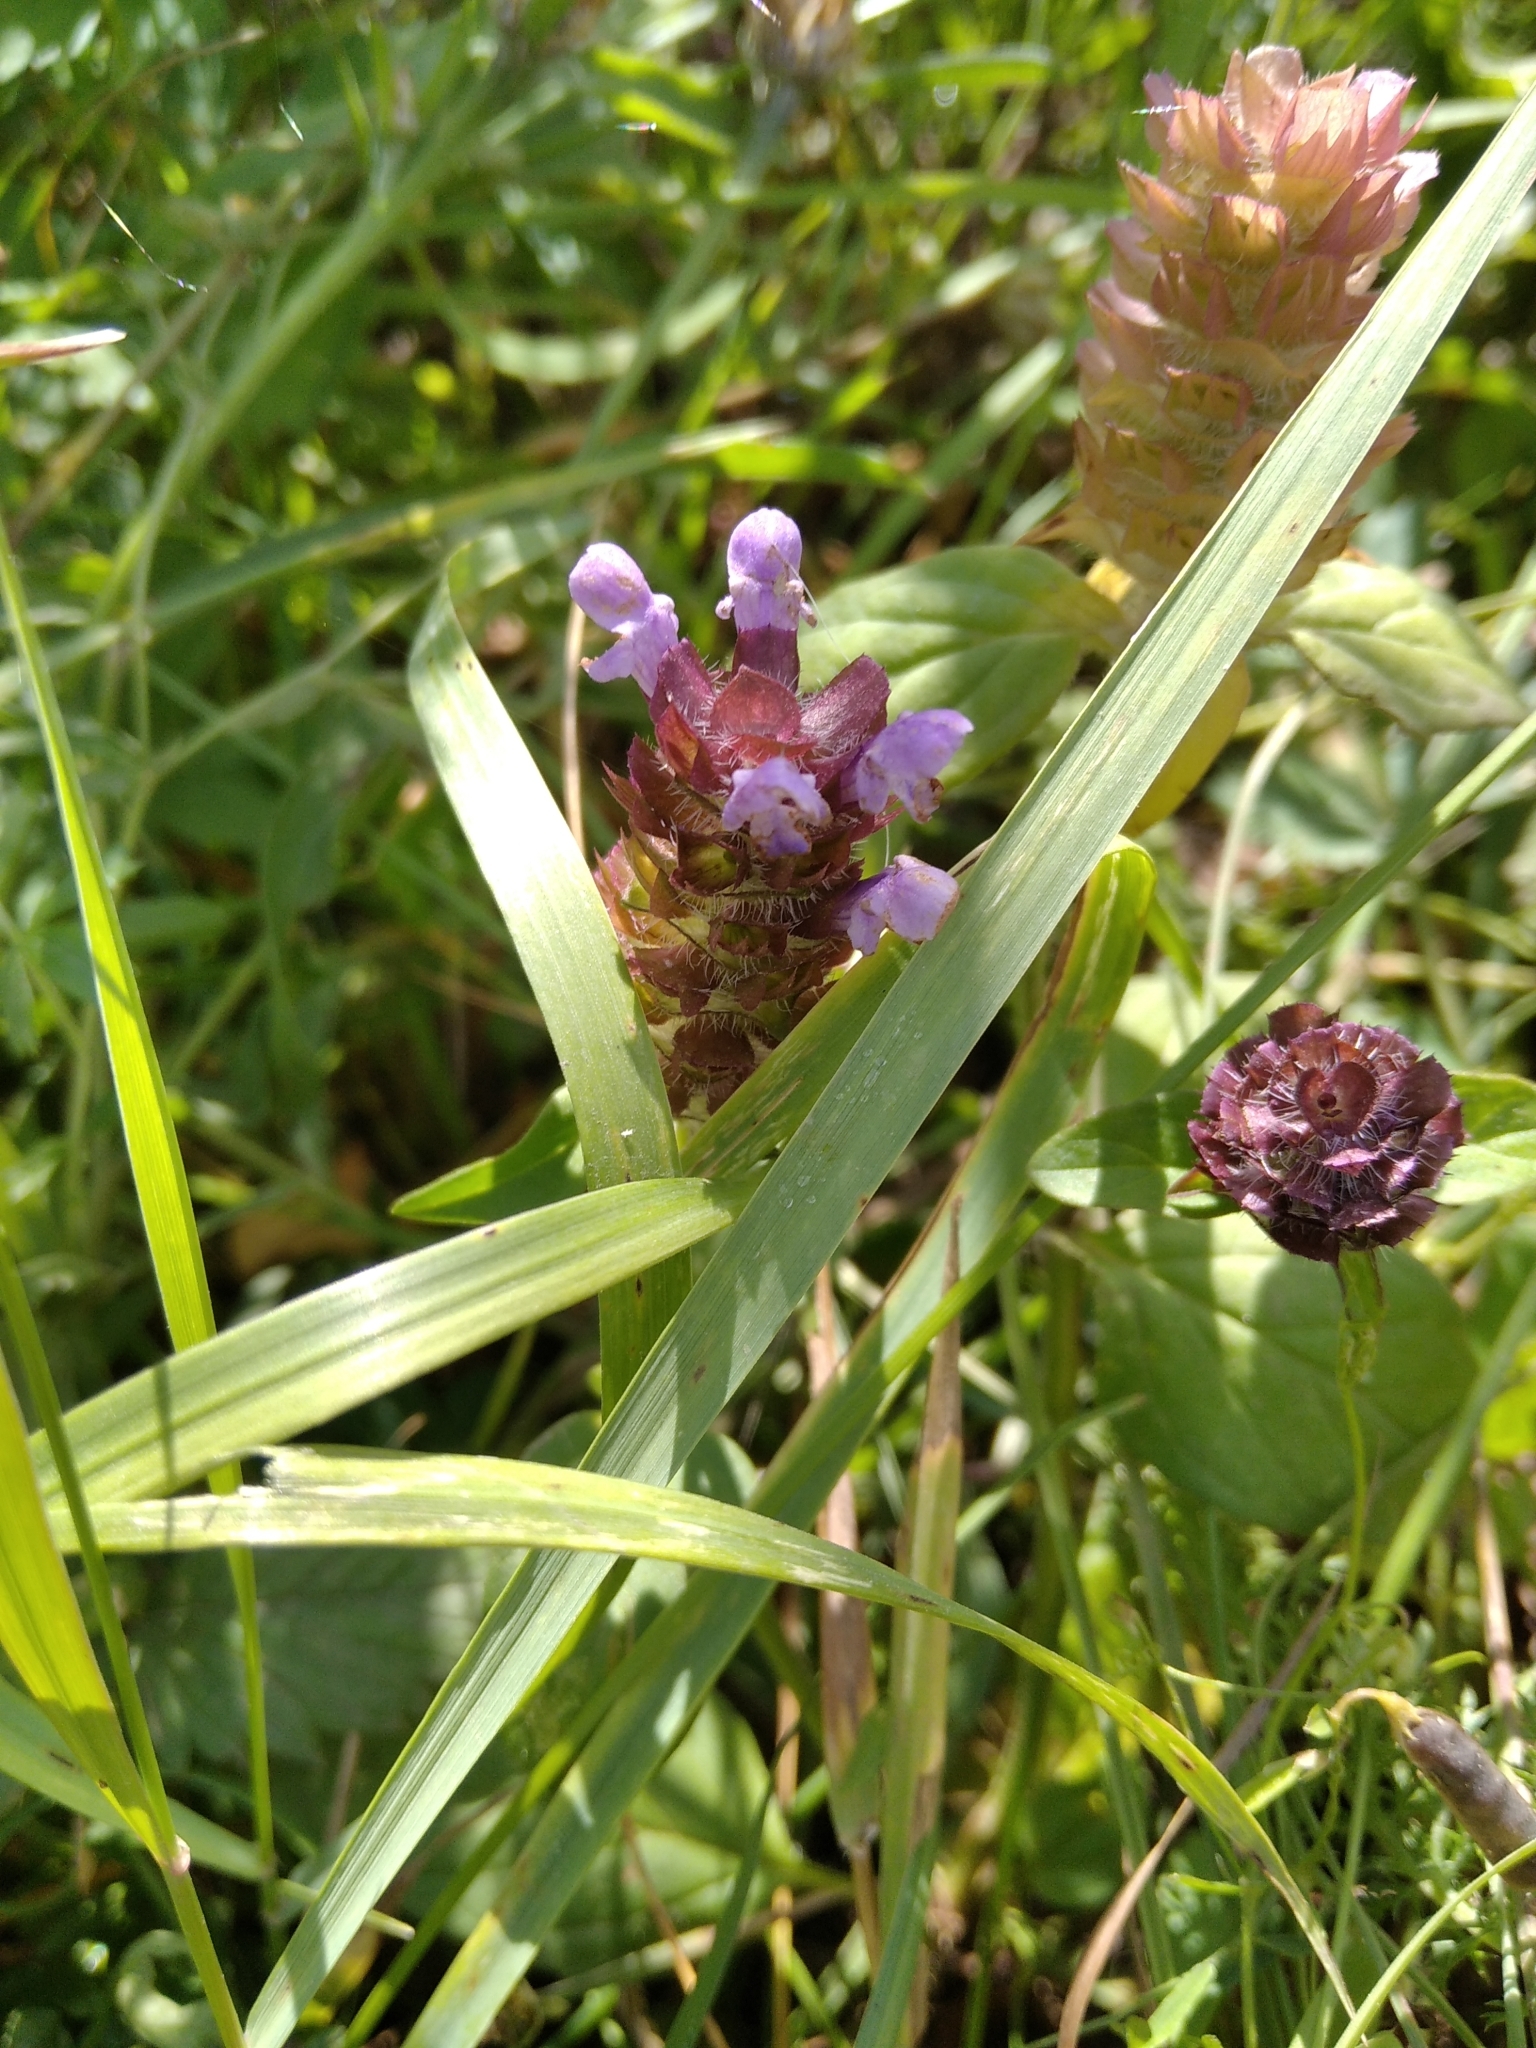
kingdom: Plantae
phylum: Tracheophyta
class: Magnoliopsida
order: Lamiales
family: Lamiaceae
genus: Prunella
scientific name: Prunella vulgaris
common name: Heal-all
